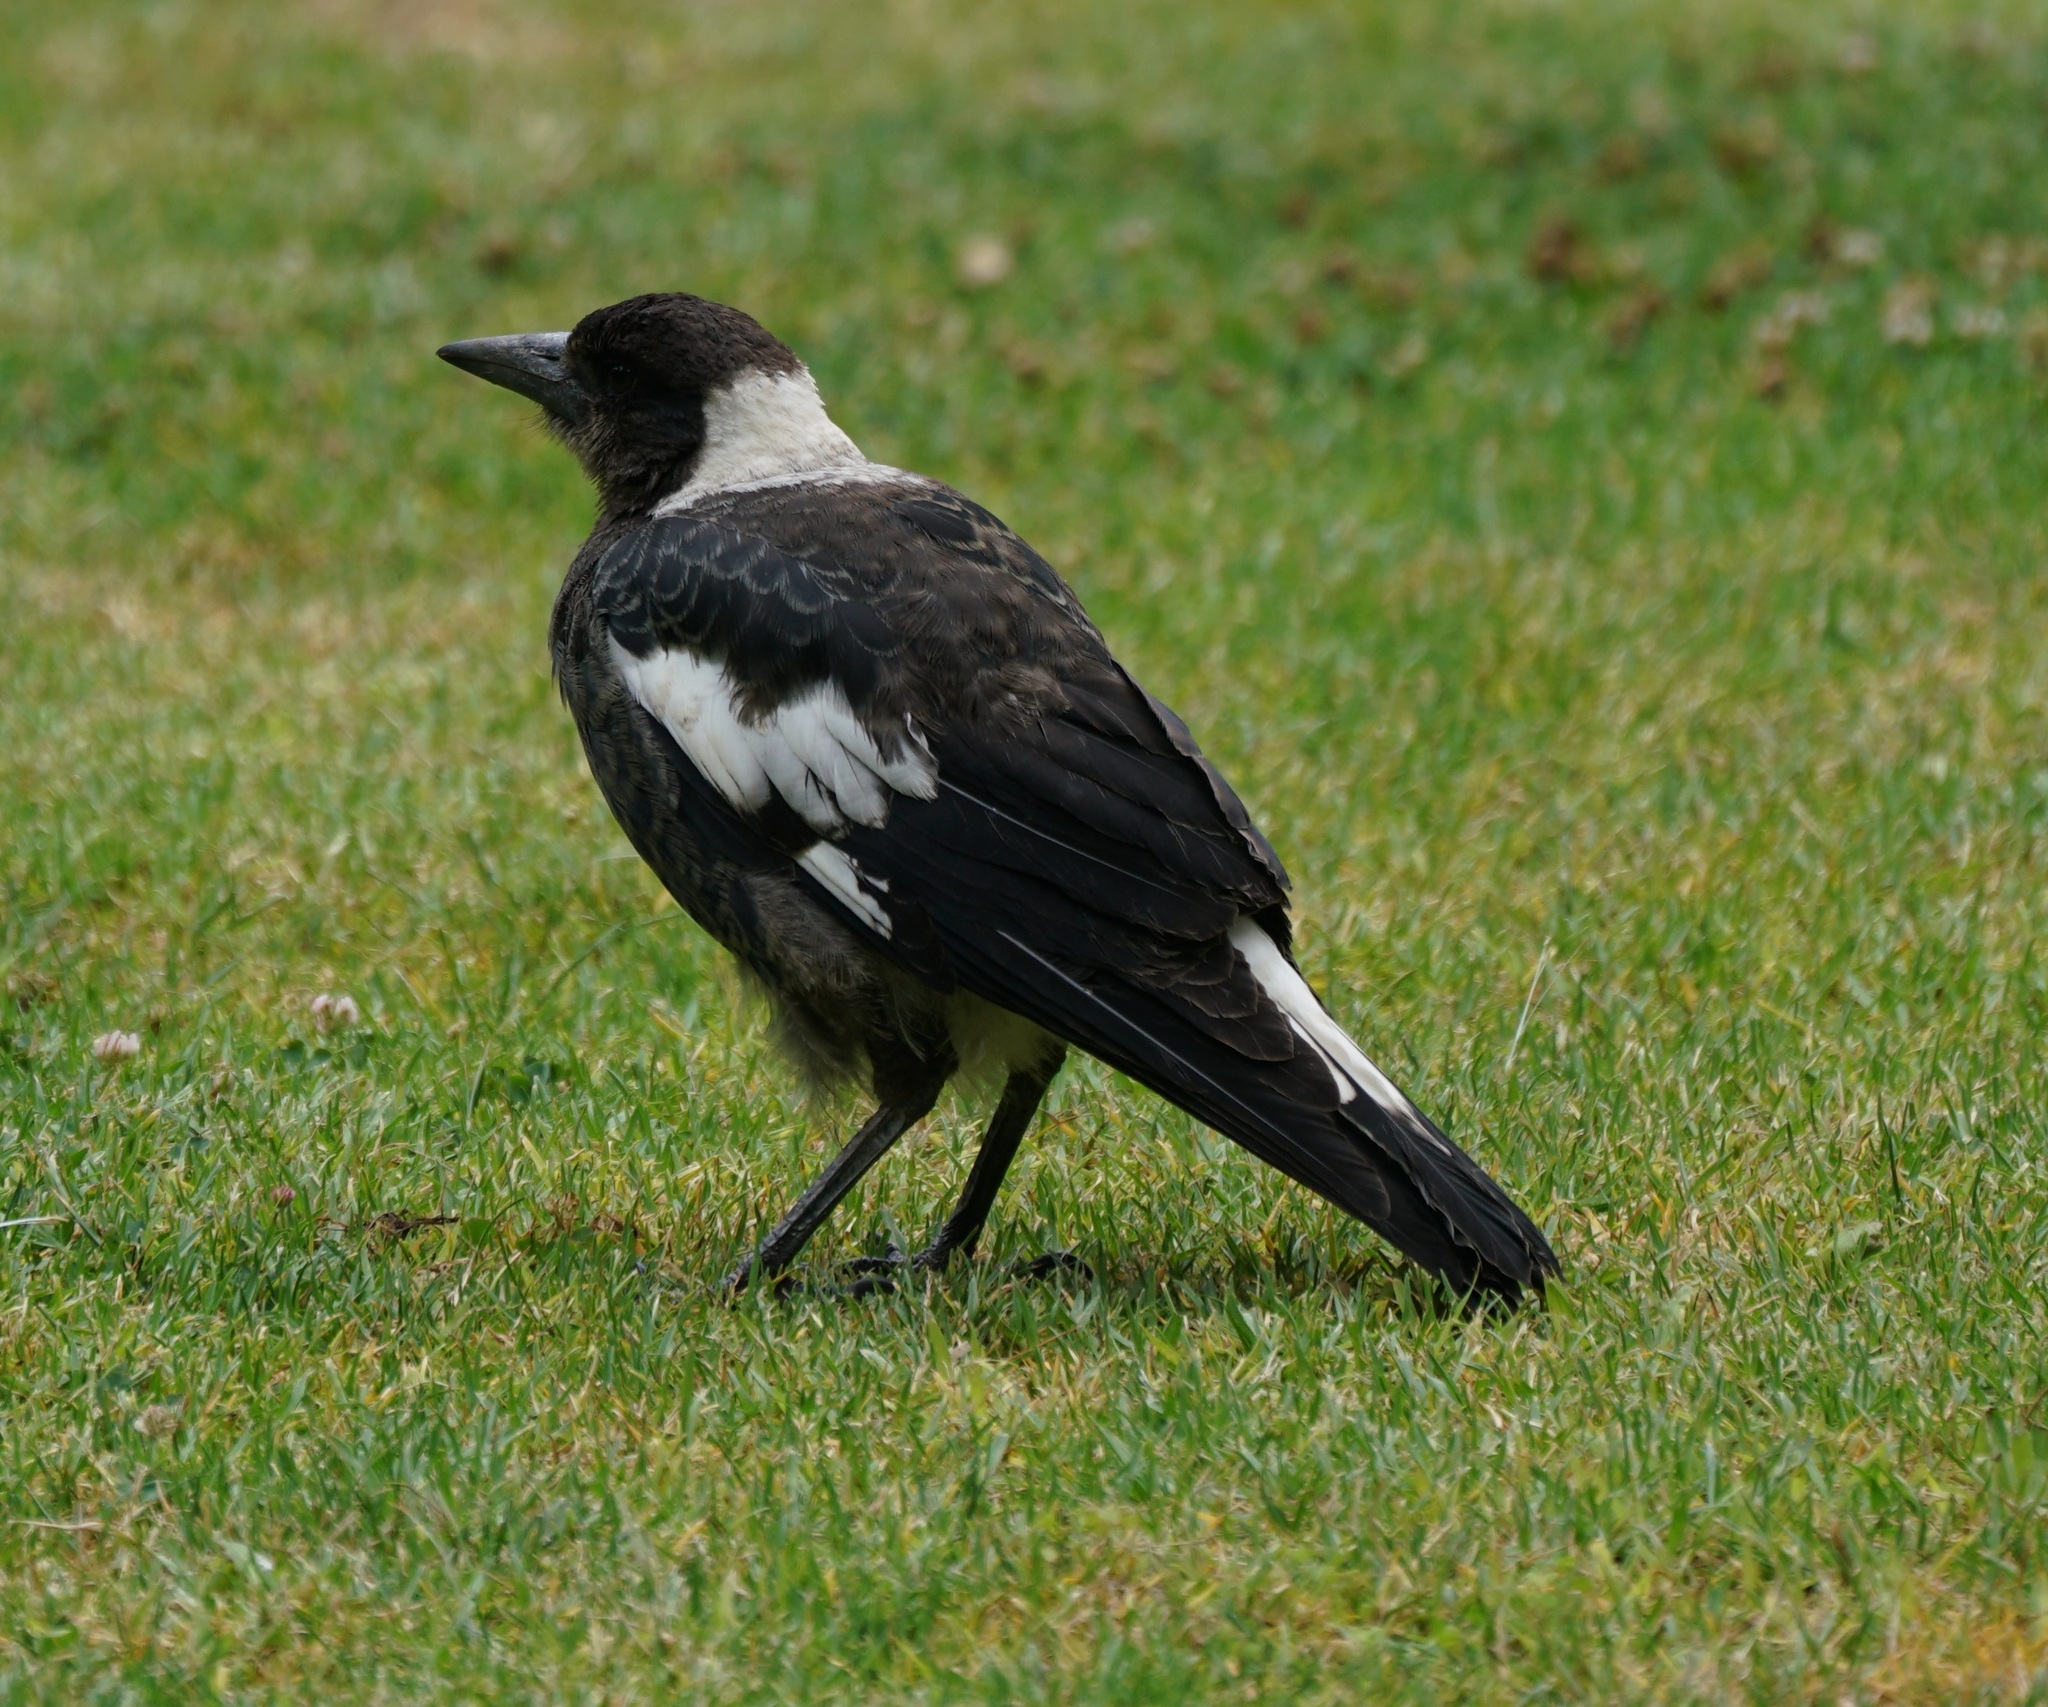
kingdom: Animalia
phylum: Chordata
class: Aves
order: Passeriformes
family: Cracticidae
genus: Gymnorhina
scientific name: Gymnorhina tibicen
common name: Australian magpie
